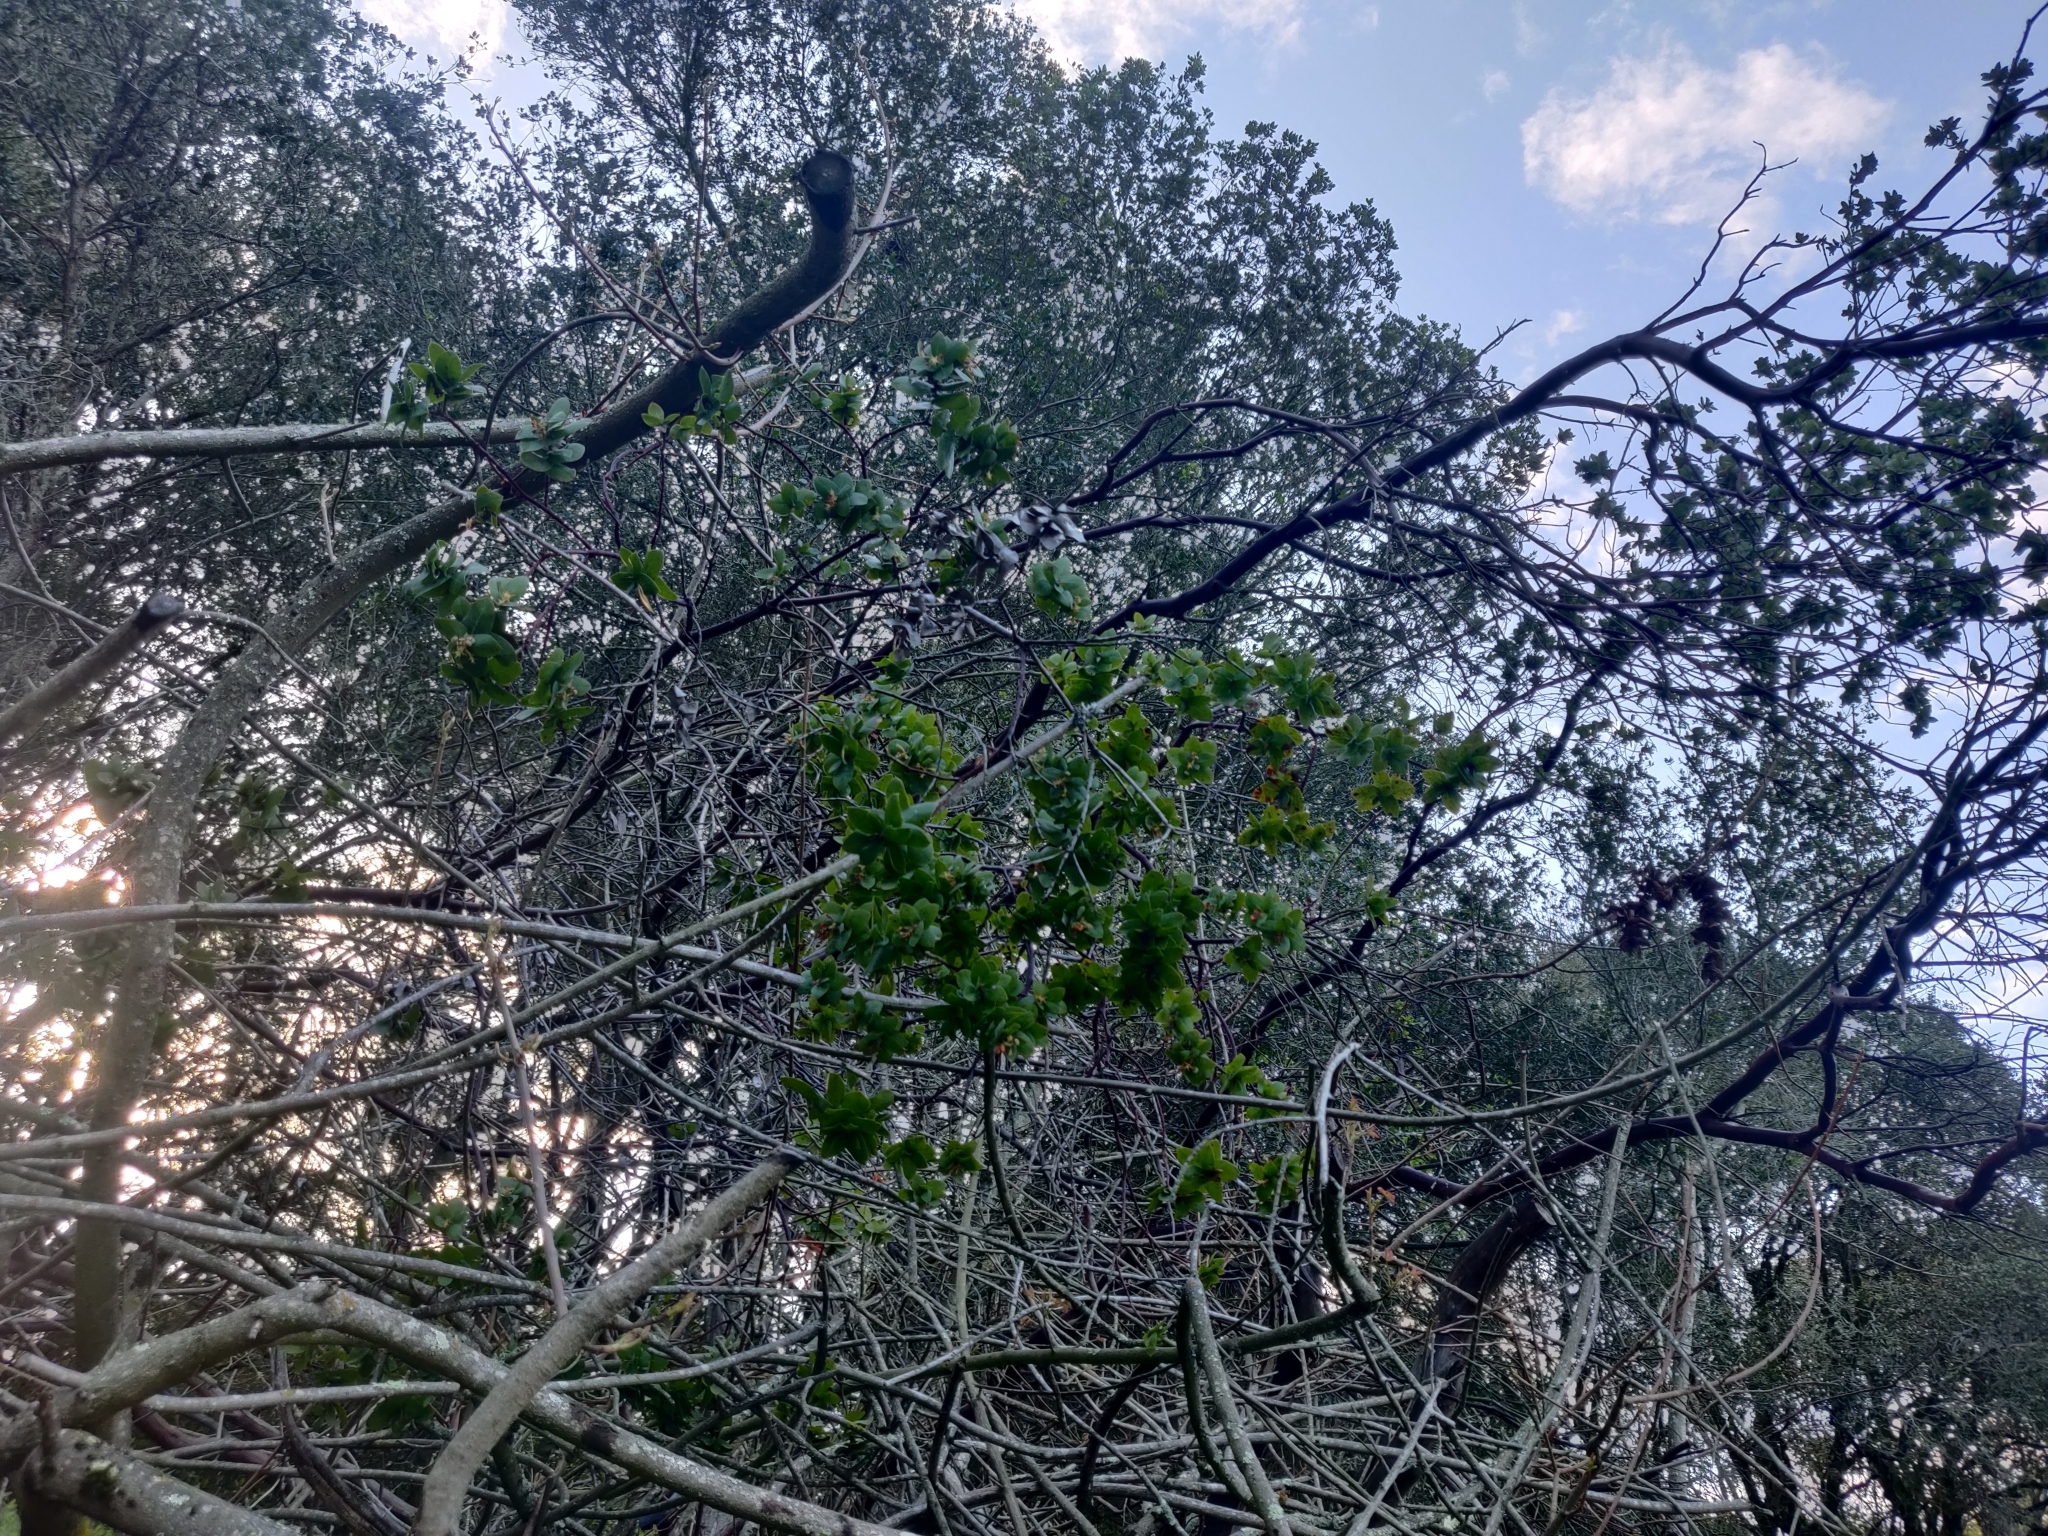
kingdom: Plantae
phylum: Tracheophyta
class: Magnoliopsida
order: Ericales
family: Ericaceae
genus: Arctostaphylos
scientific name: Arctostaphylos pallida
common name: Pallid manzanita
